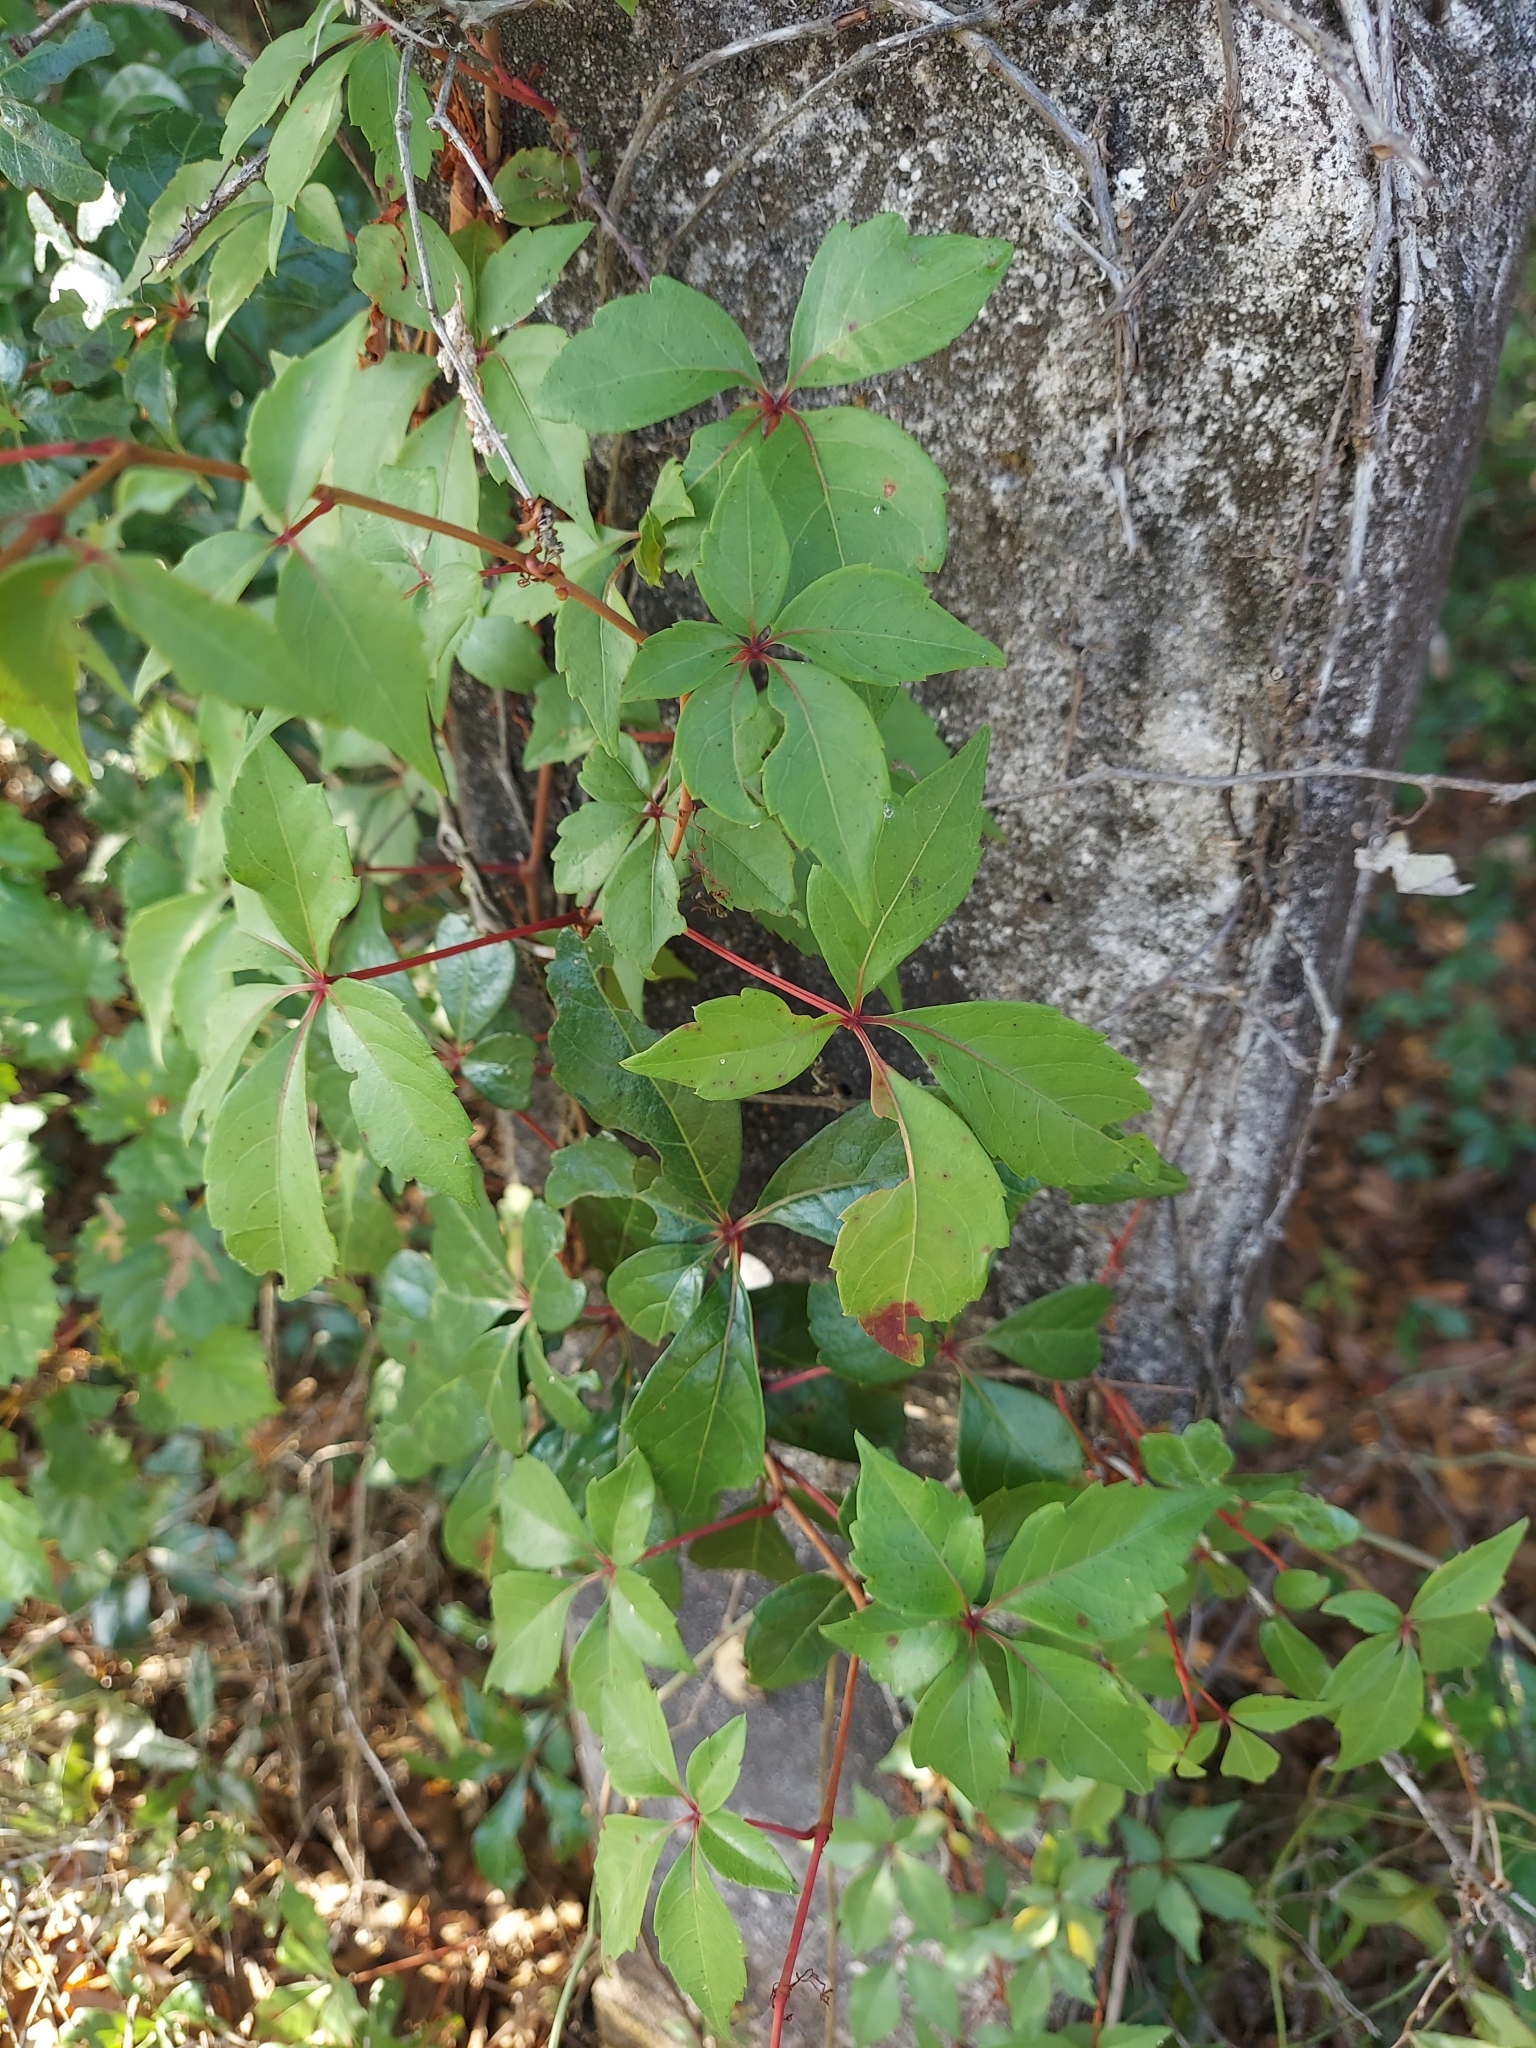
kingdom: Plantae
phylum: Tracheophyta
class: Magnoliopsida
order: Vitales
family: Vitaceae
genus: Parthenocissus
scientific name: Parthenocissus quinquefolia
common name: Virginia-creeper
